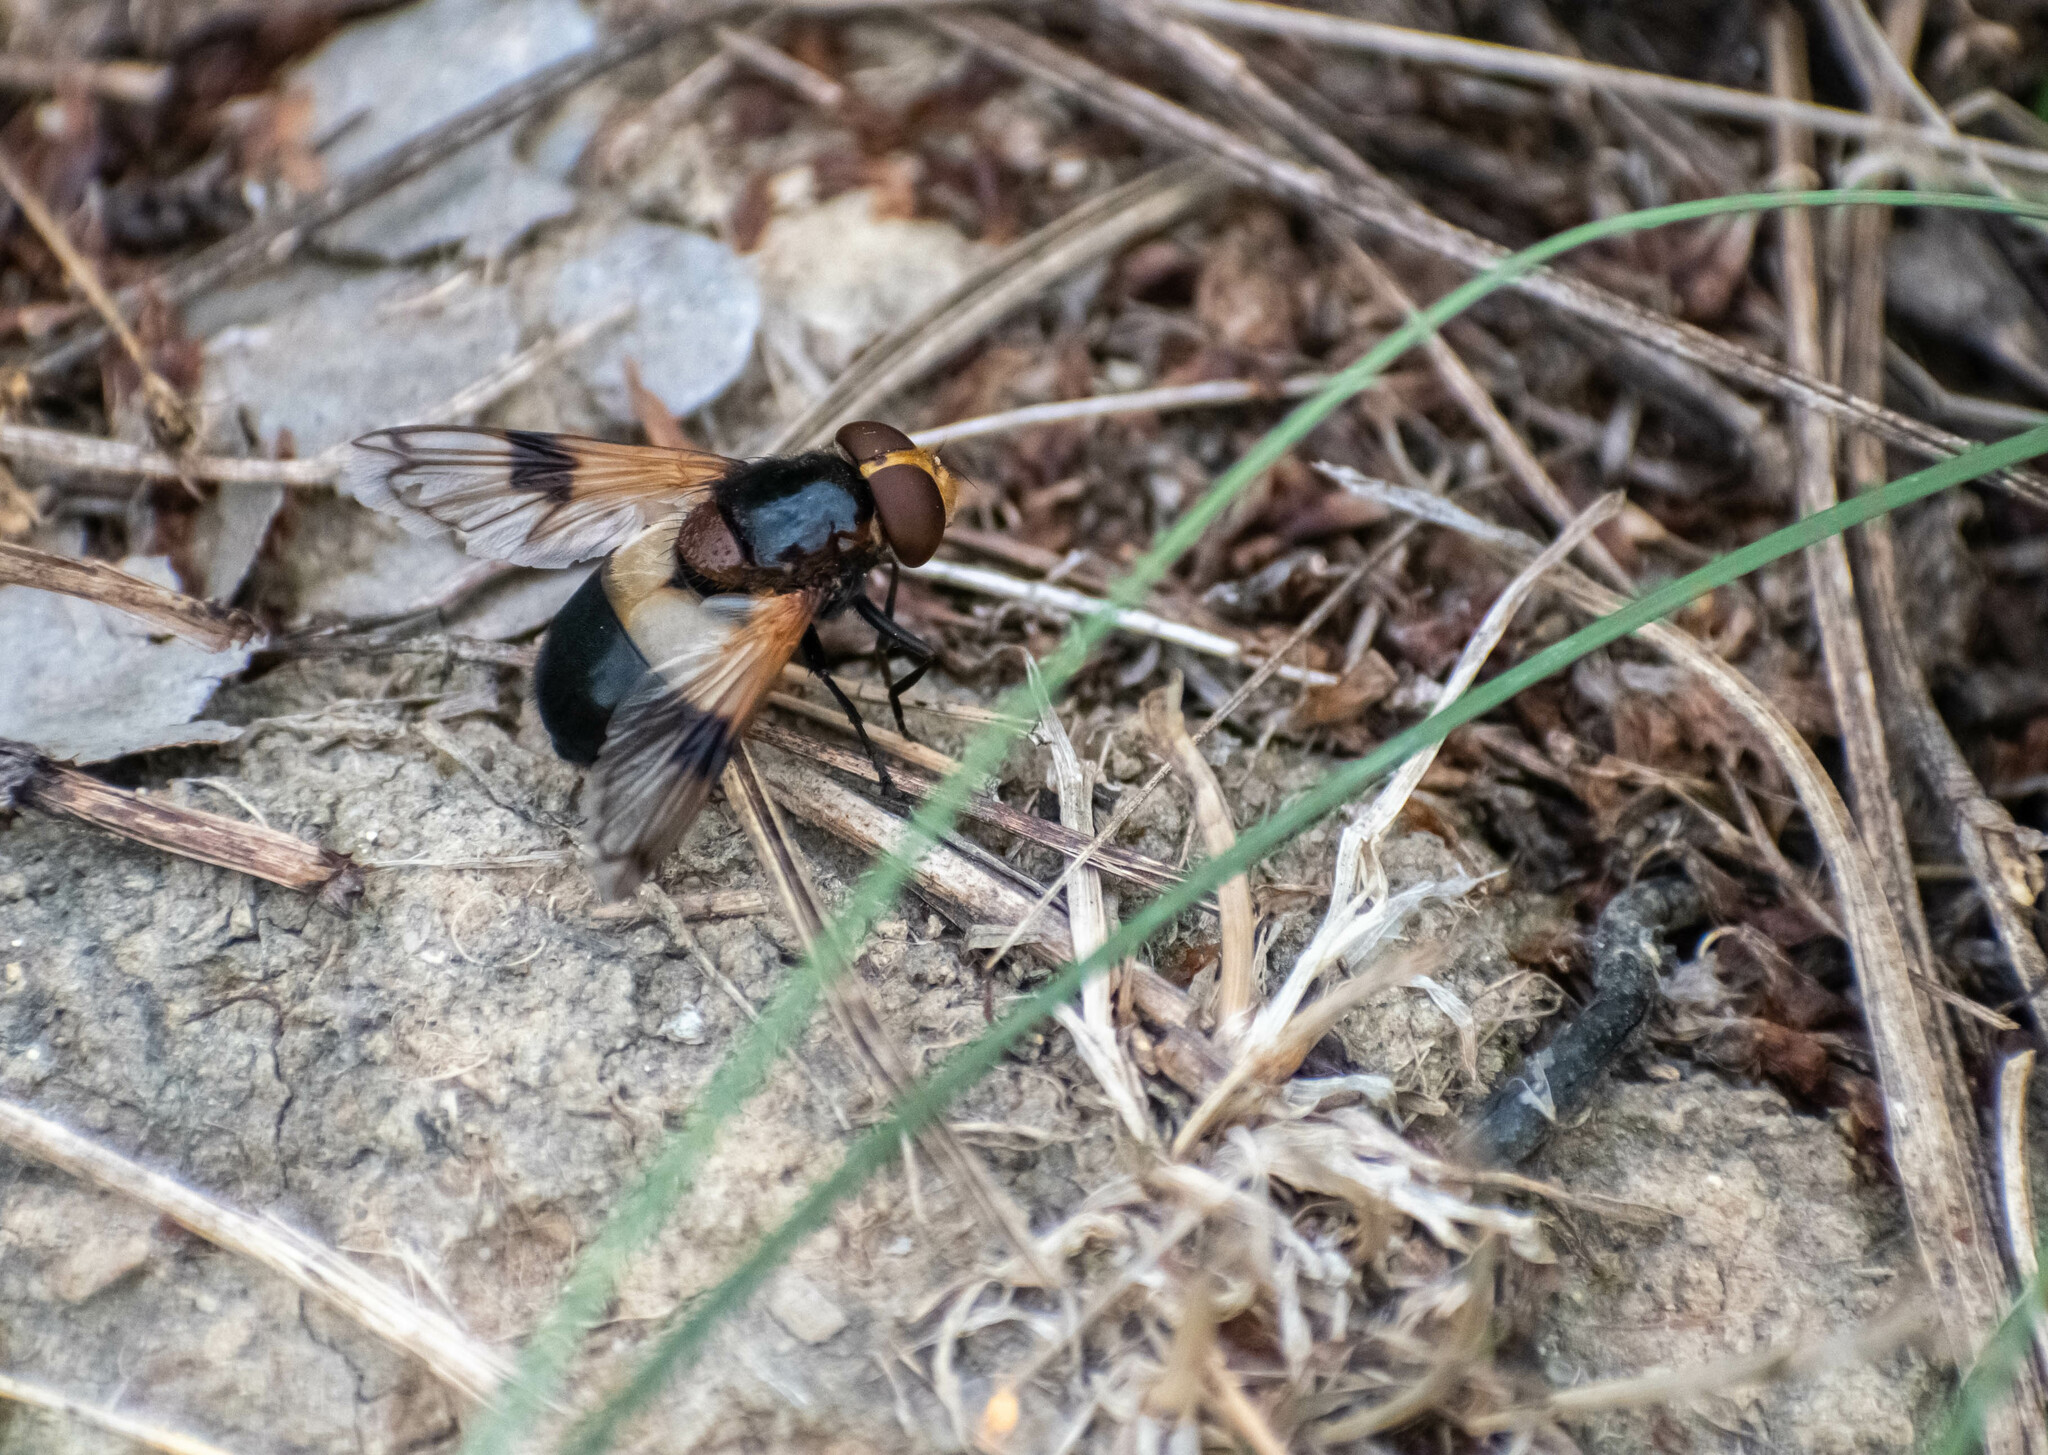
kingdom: Animalia
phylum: Arthropoda
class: Insecta
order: Diptera
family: Syrphidae
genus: Volucella
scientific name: Volucella pellucens
